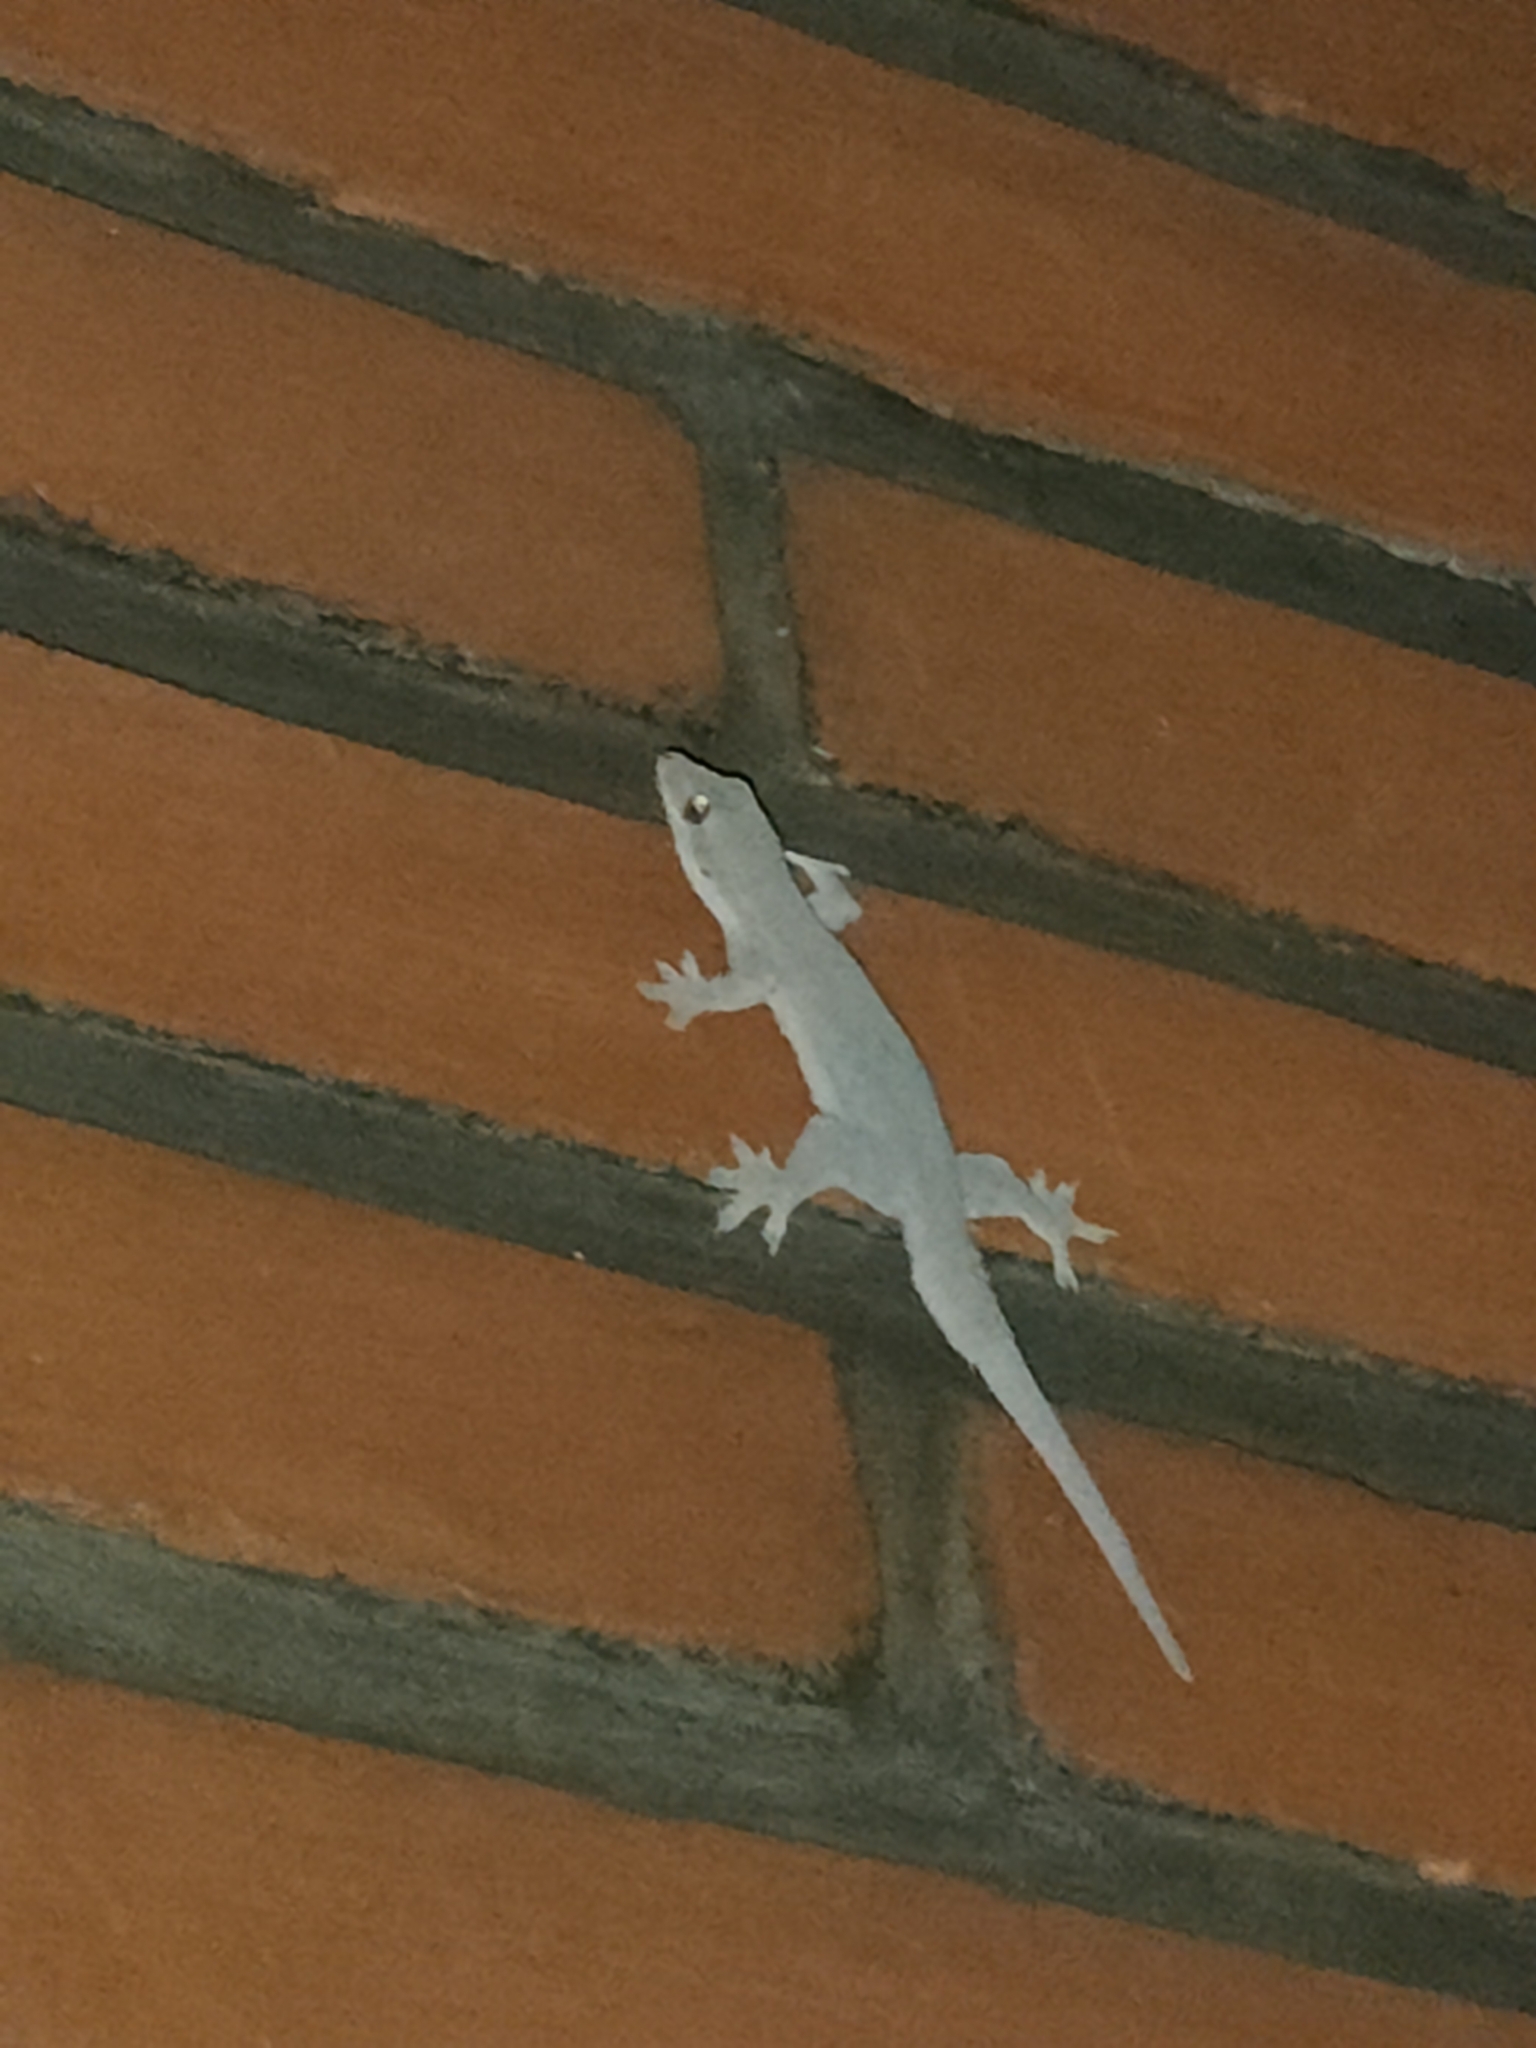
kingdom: Animalia
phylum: Chordata
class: Squamata
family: Gekkonidae
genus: Hemidactylus
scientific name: Hemidactylus platyurus
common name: Flat-tailed house gecko
